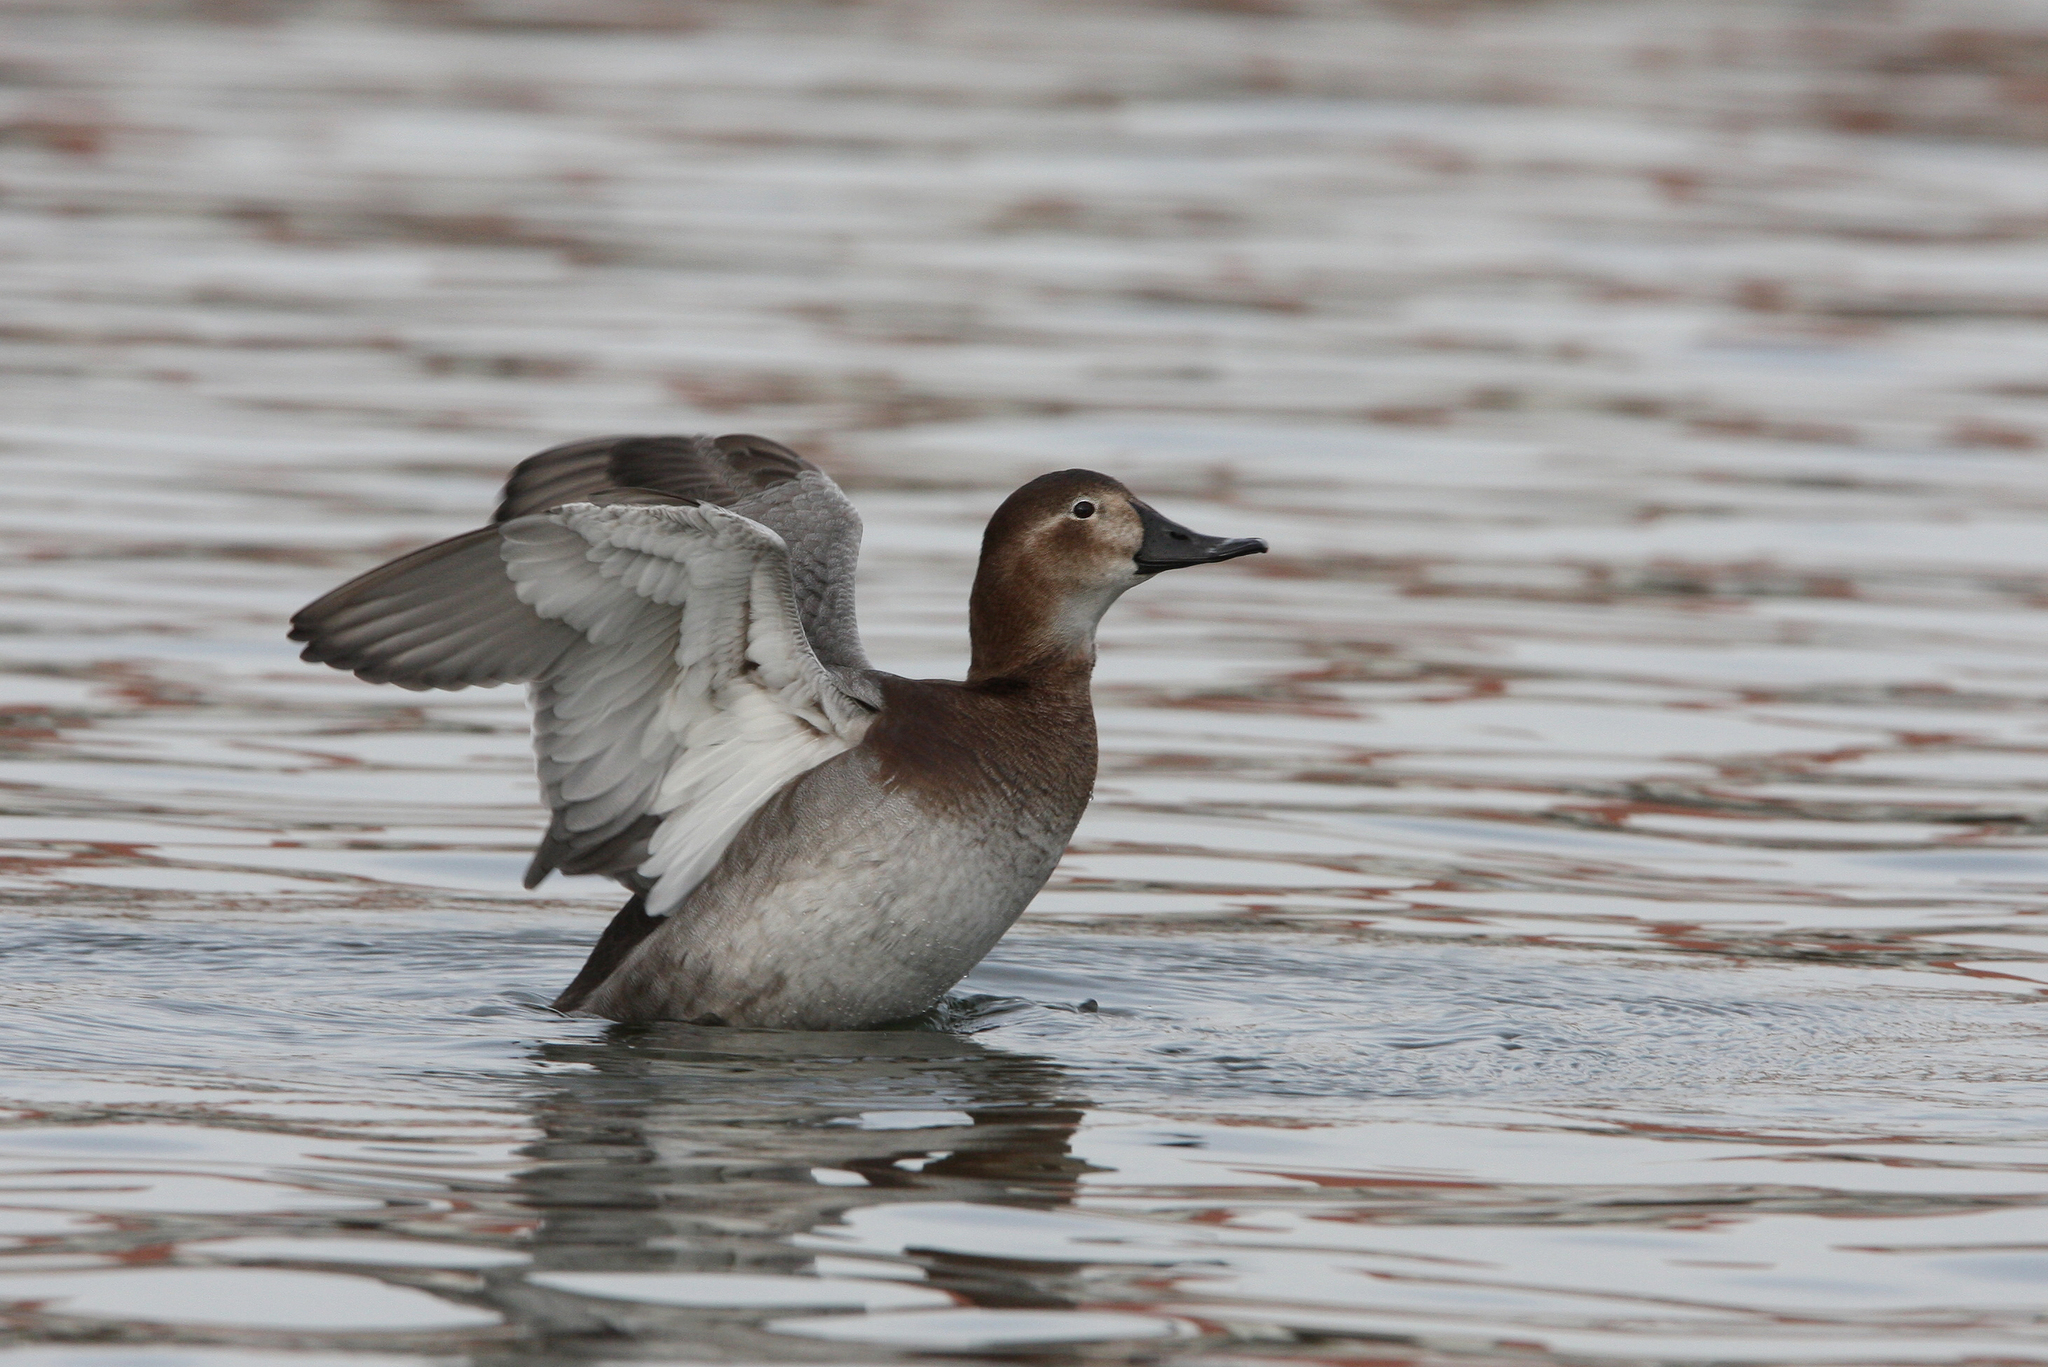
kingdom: Animalia
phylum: Chordata
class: Aves
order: Anseriformes
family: Anatidae
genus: Aythya
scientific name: Aythya ferina
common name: Common pochard
